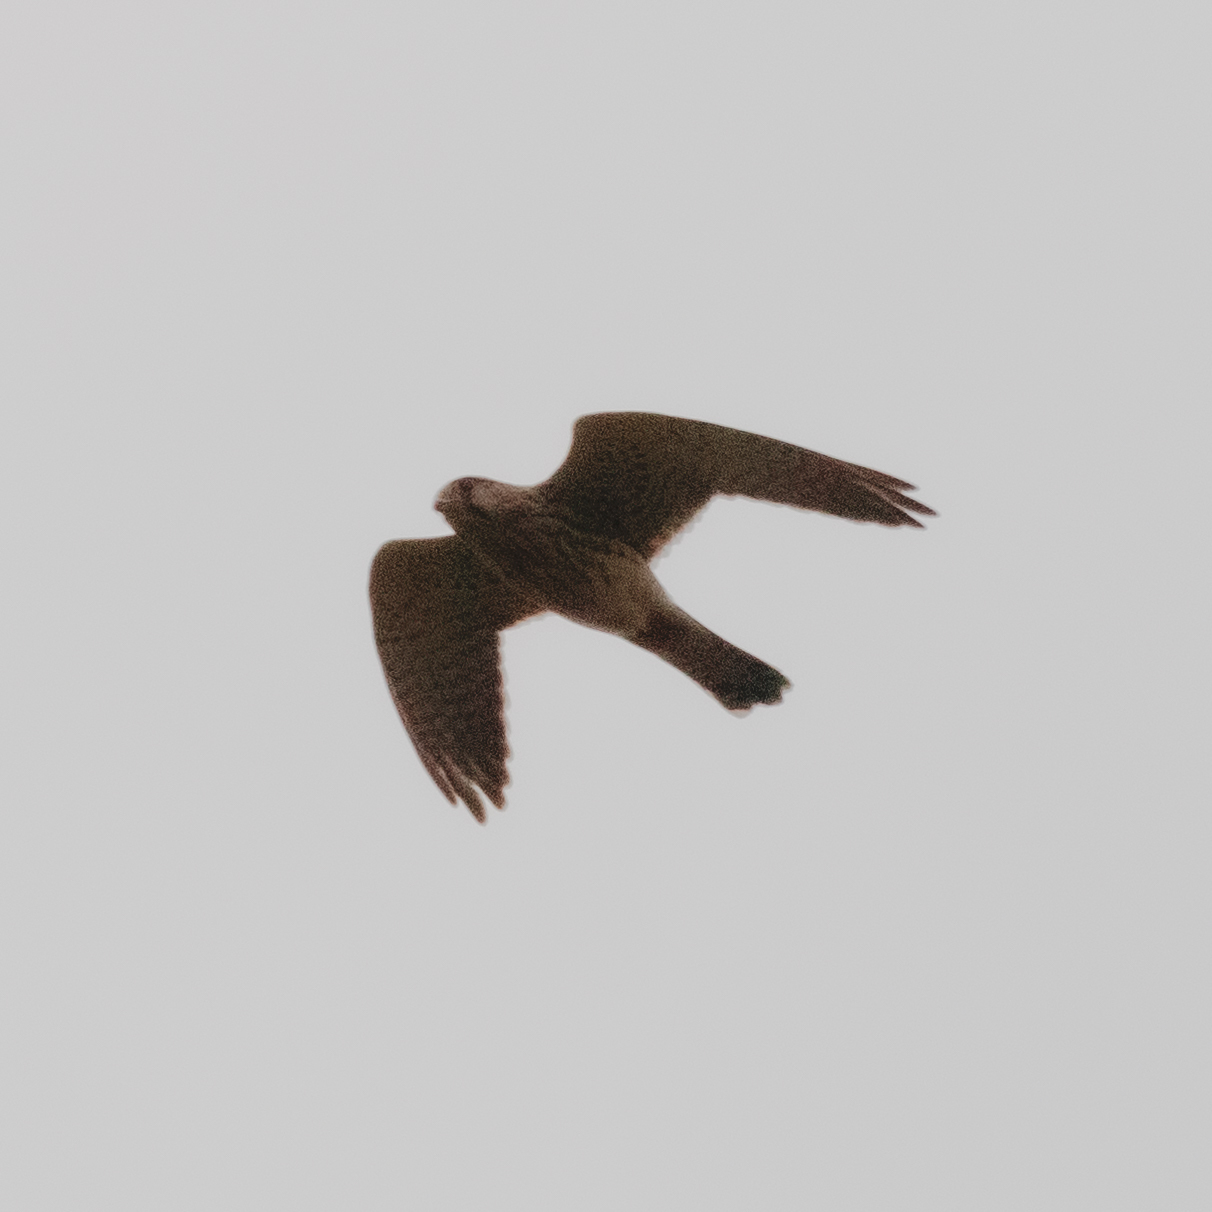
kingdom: Animalia
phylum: Chordata
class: Aves
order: Falconiformes
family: Falconidae
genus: Falco
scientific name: Falco tinnunculus
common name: Common kestrel
